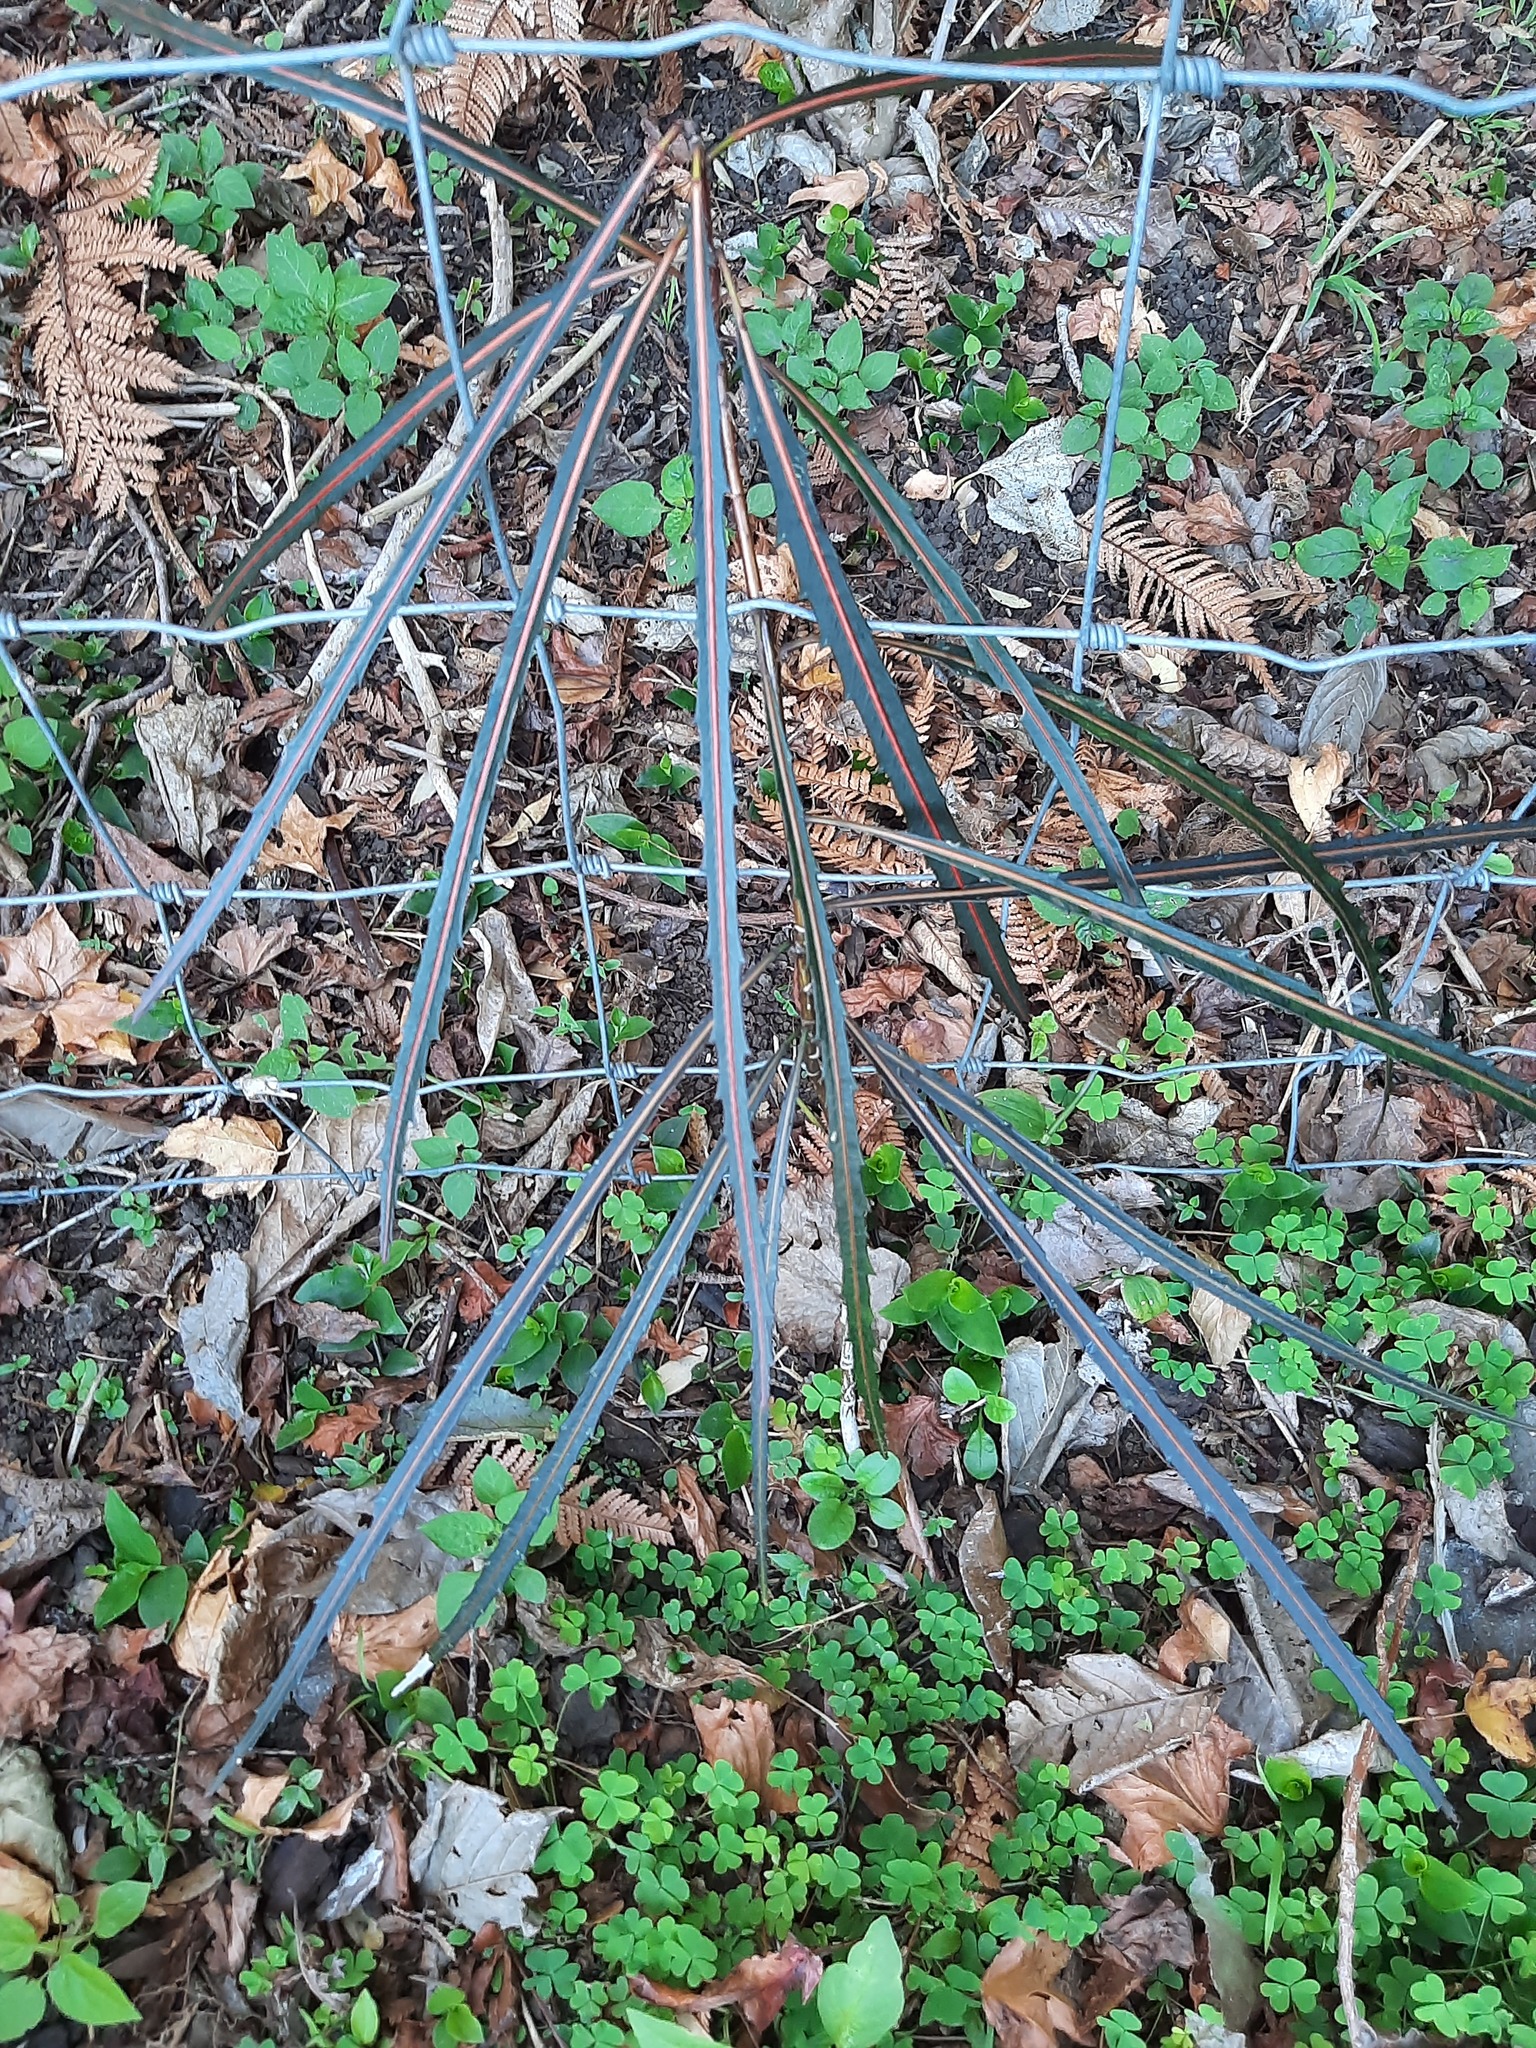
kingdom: Plantae
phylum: Tracheophyta
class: Magnoliopsida
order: Apiales
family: Araliaceae
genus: Pseudopanax
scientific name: Pseudopanax crassifolius
